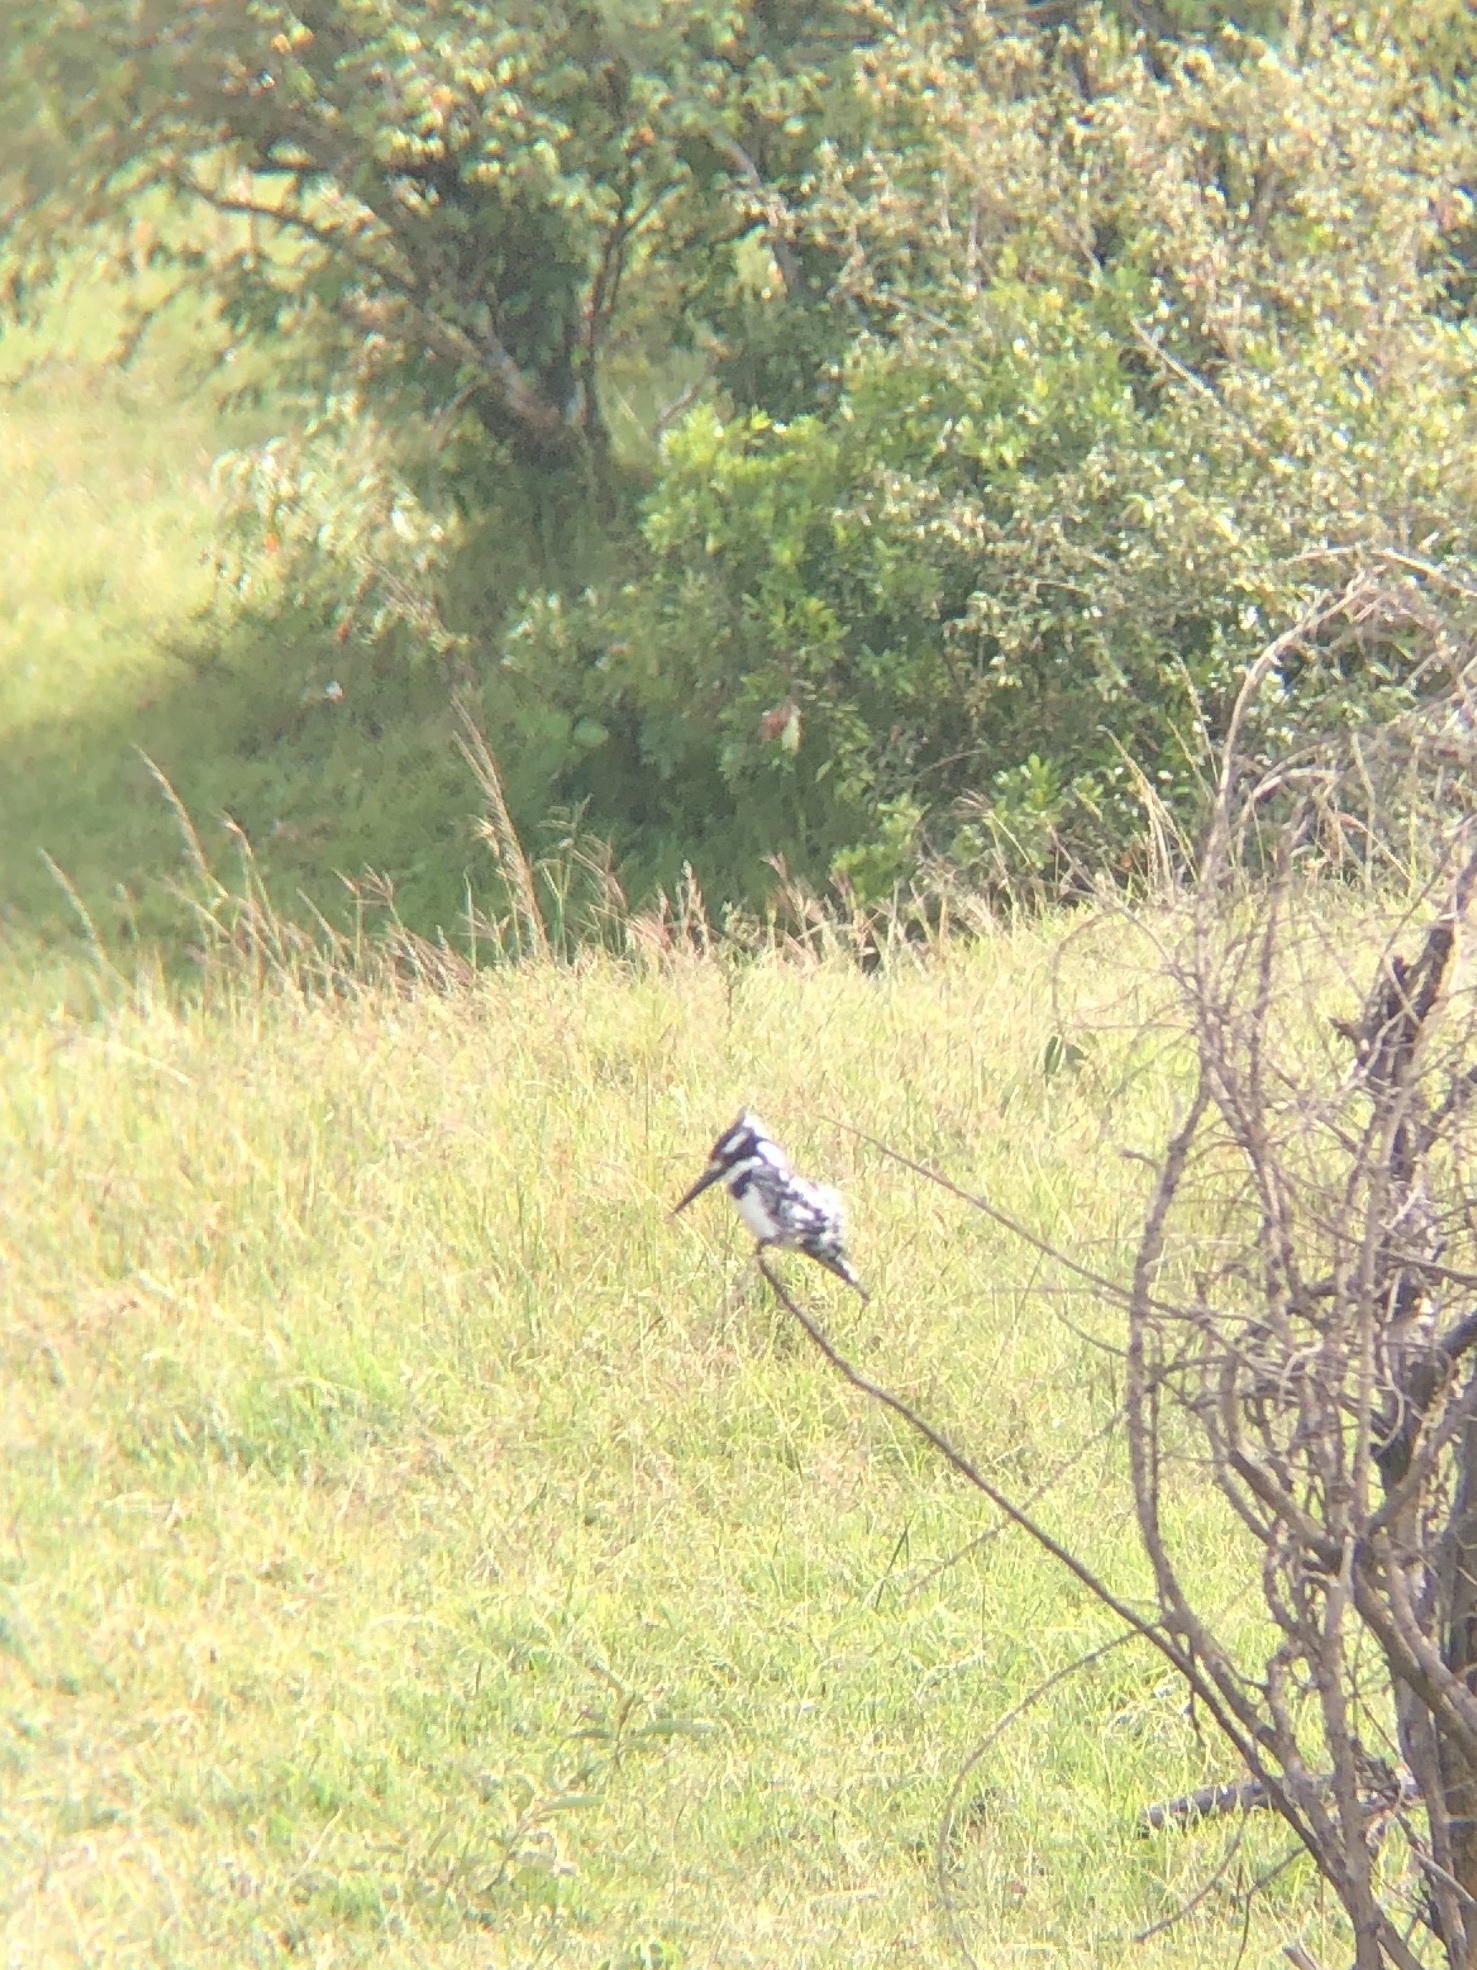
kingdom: Animalia
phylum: Chordata
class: Aves
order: Coraciiformes
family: Alcedinidae
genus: Ceryle
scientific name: Ceryle rudis
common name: Pied kingfisher
